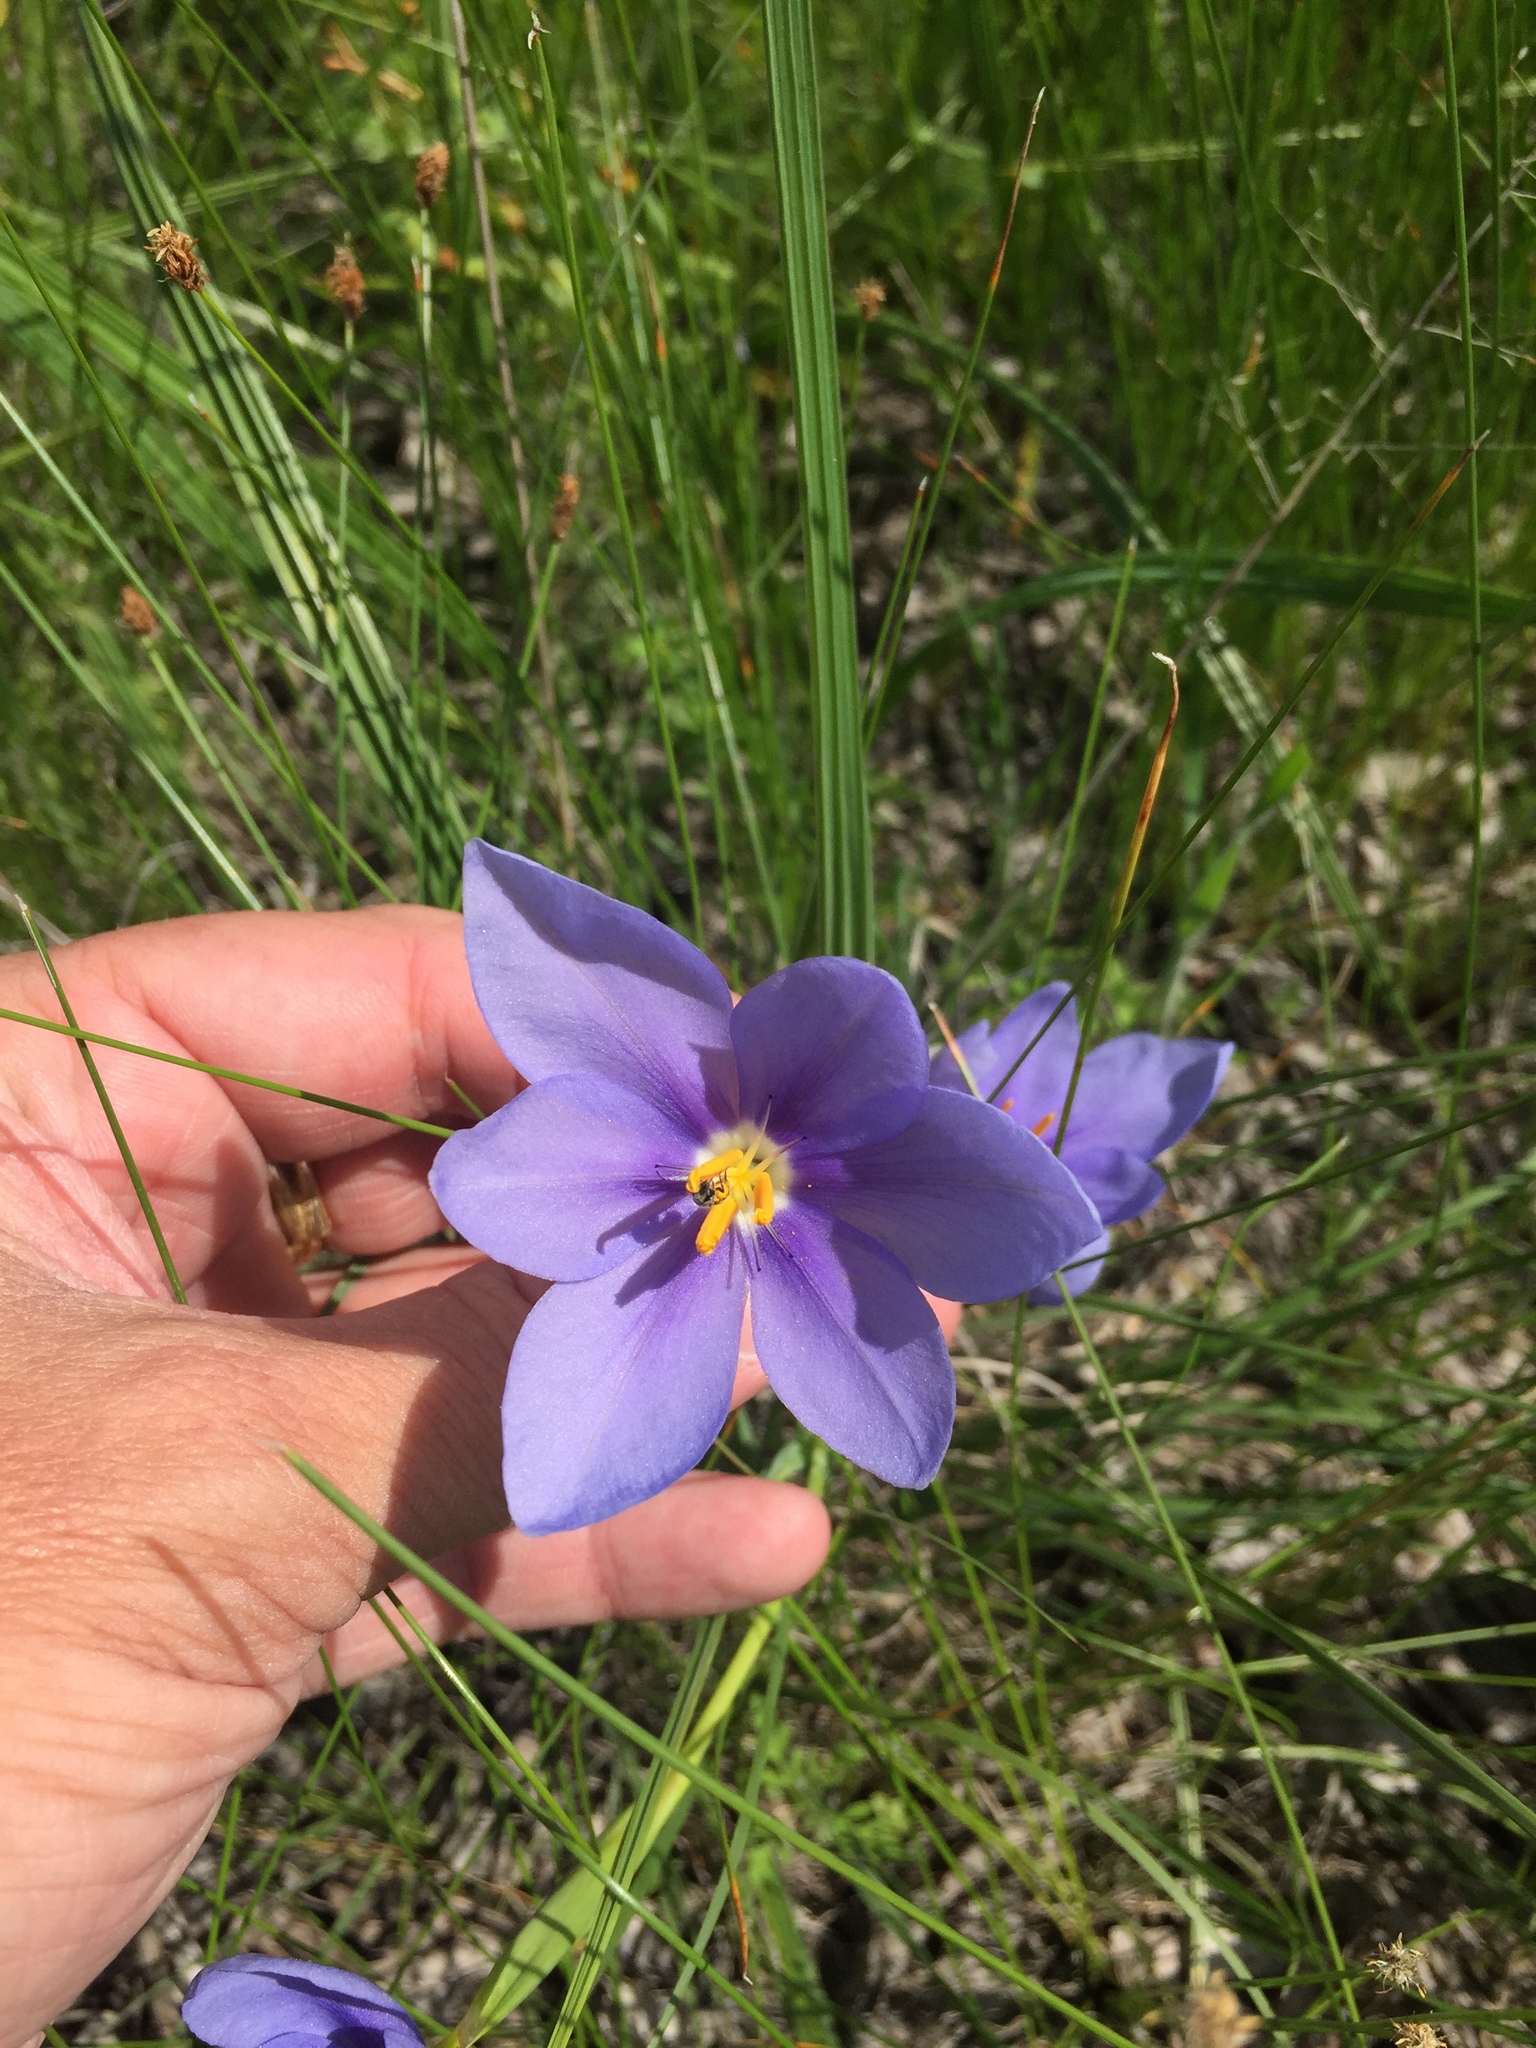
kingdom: Plantae
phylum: Tracheophyta
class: Liliopsida
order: Asparagales
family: Iridaceae
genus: Nemastylis
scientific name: Nemastylis geminiflora
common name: Prairie celestial
